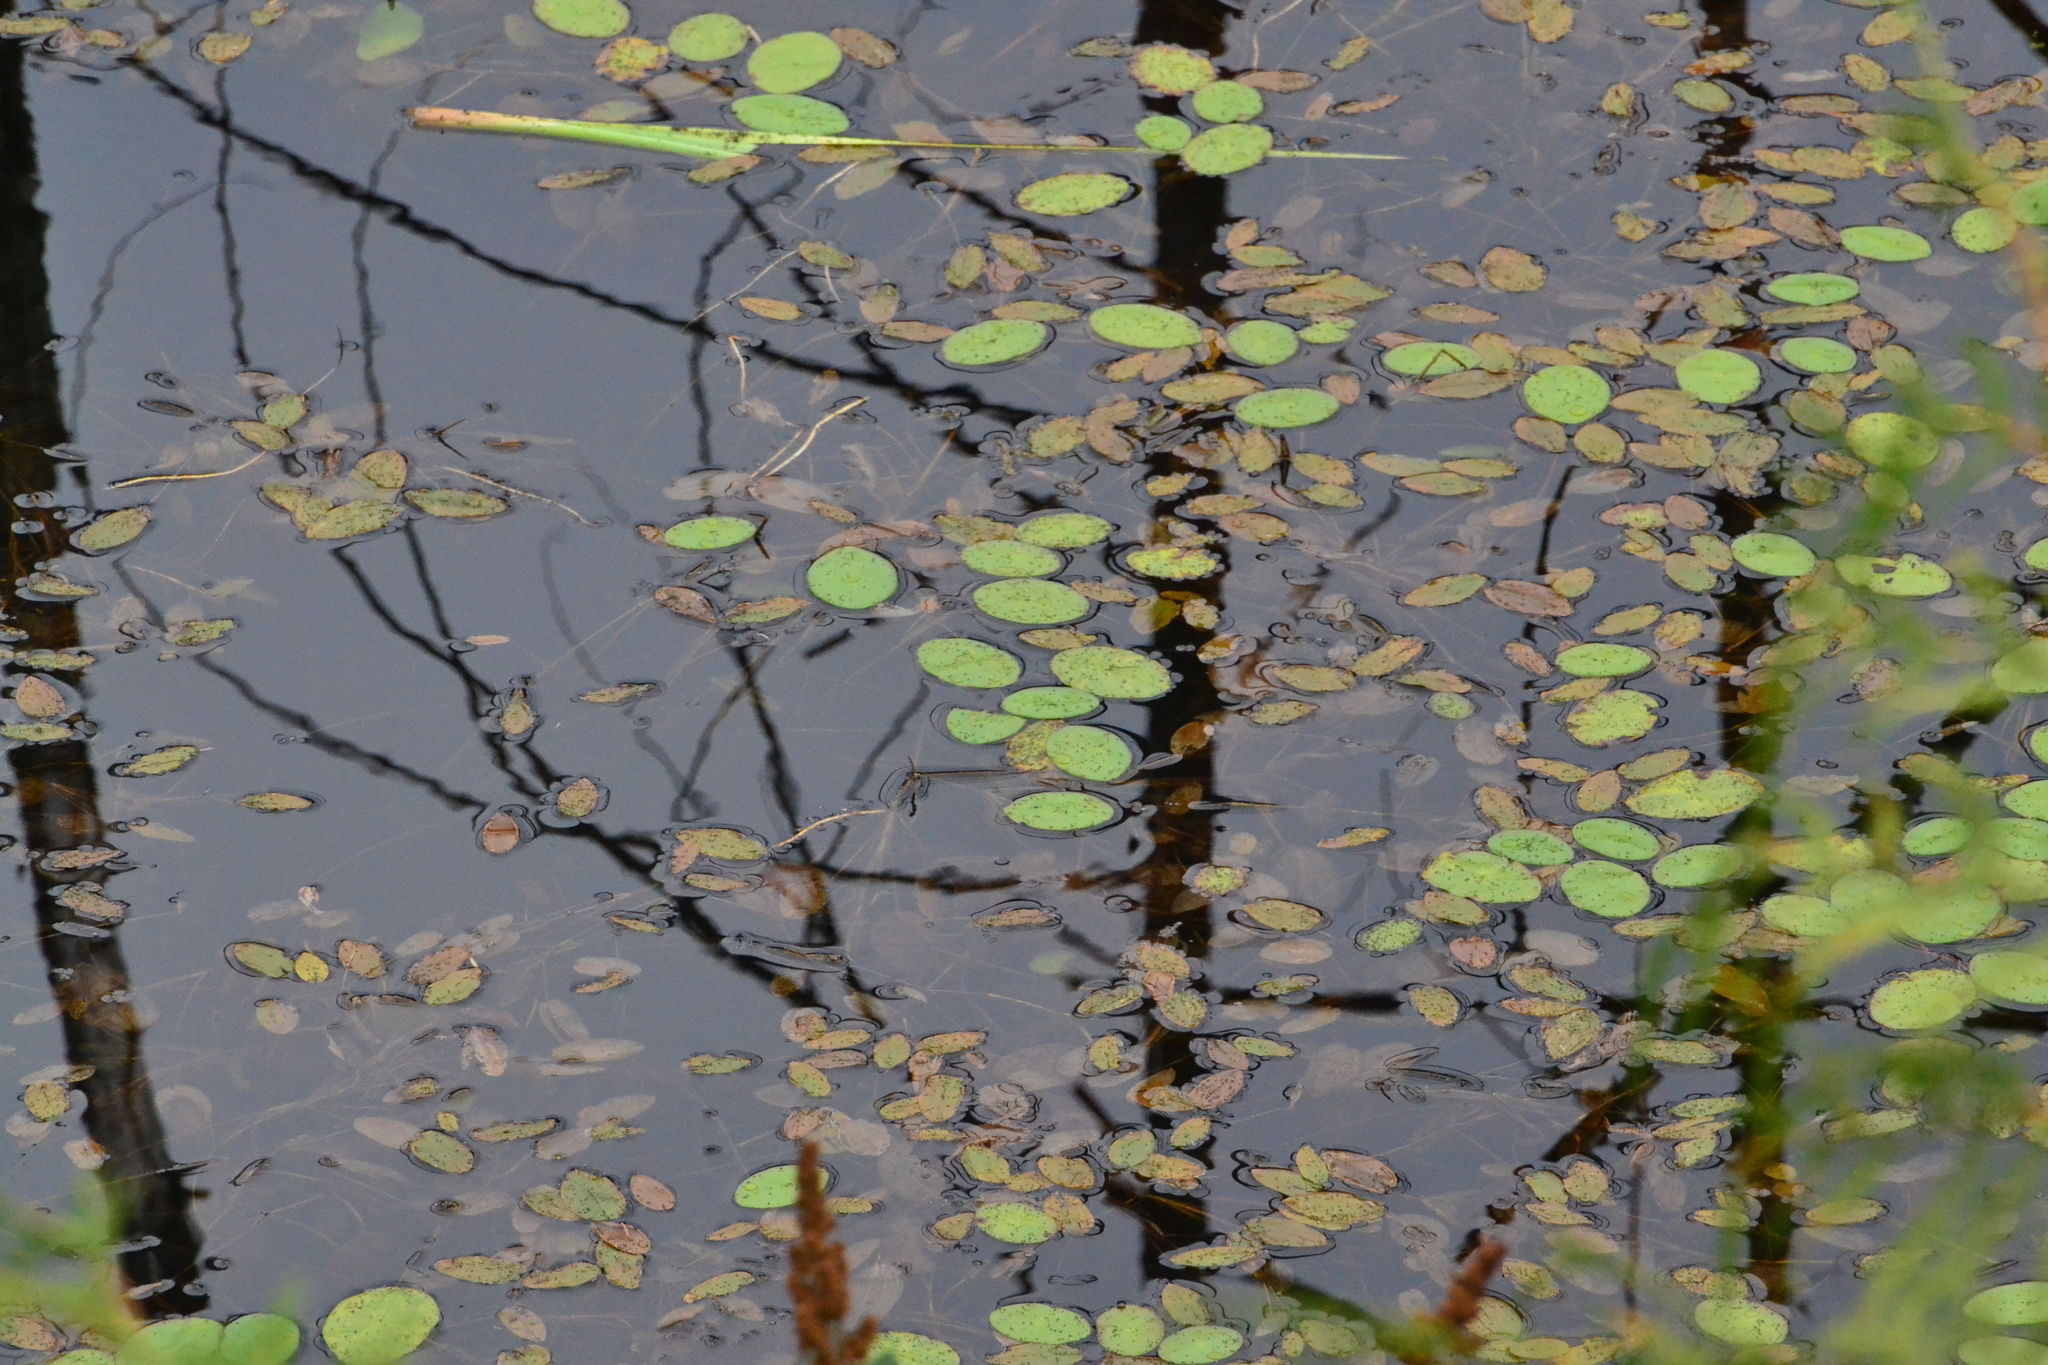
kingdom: Plantae
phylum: Tracheophyta
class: Magnoliopsida
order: Nymphaeales
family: Cabombaceae
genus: Brasenia
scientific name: Brasenia schreberi
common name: Water-shield
